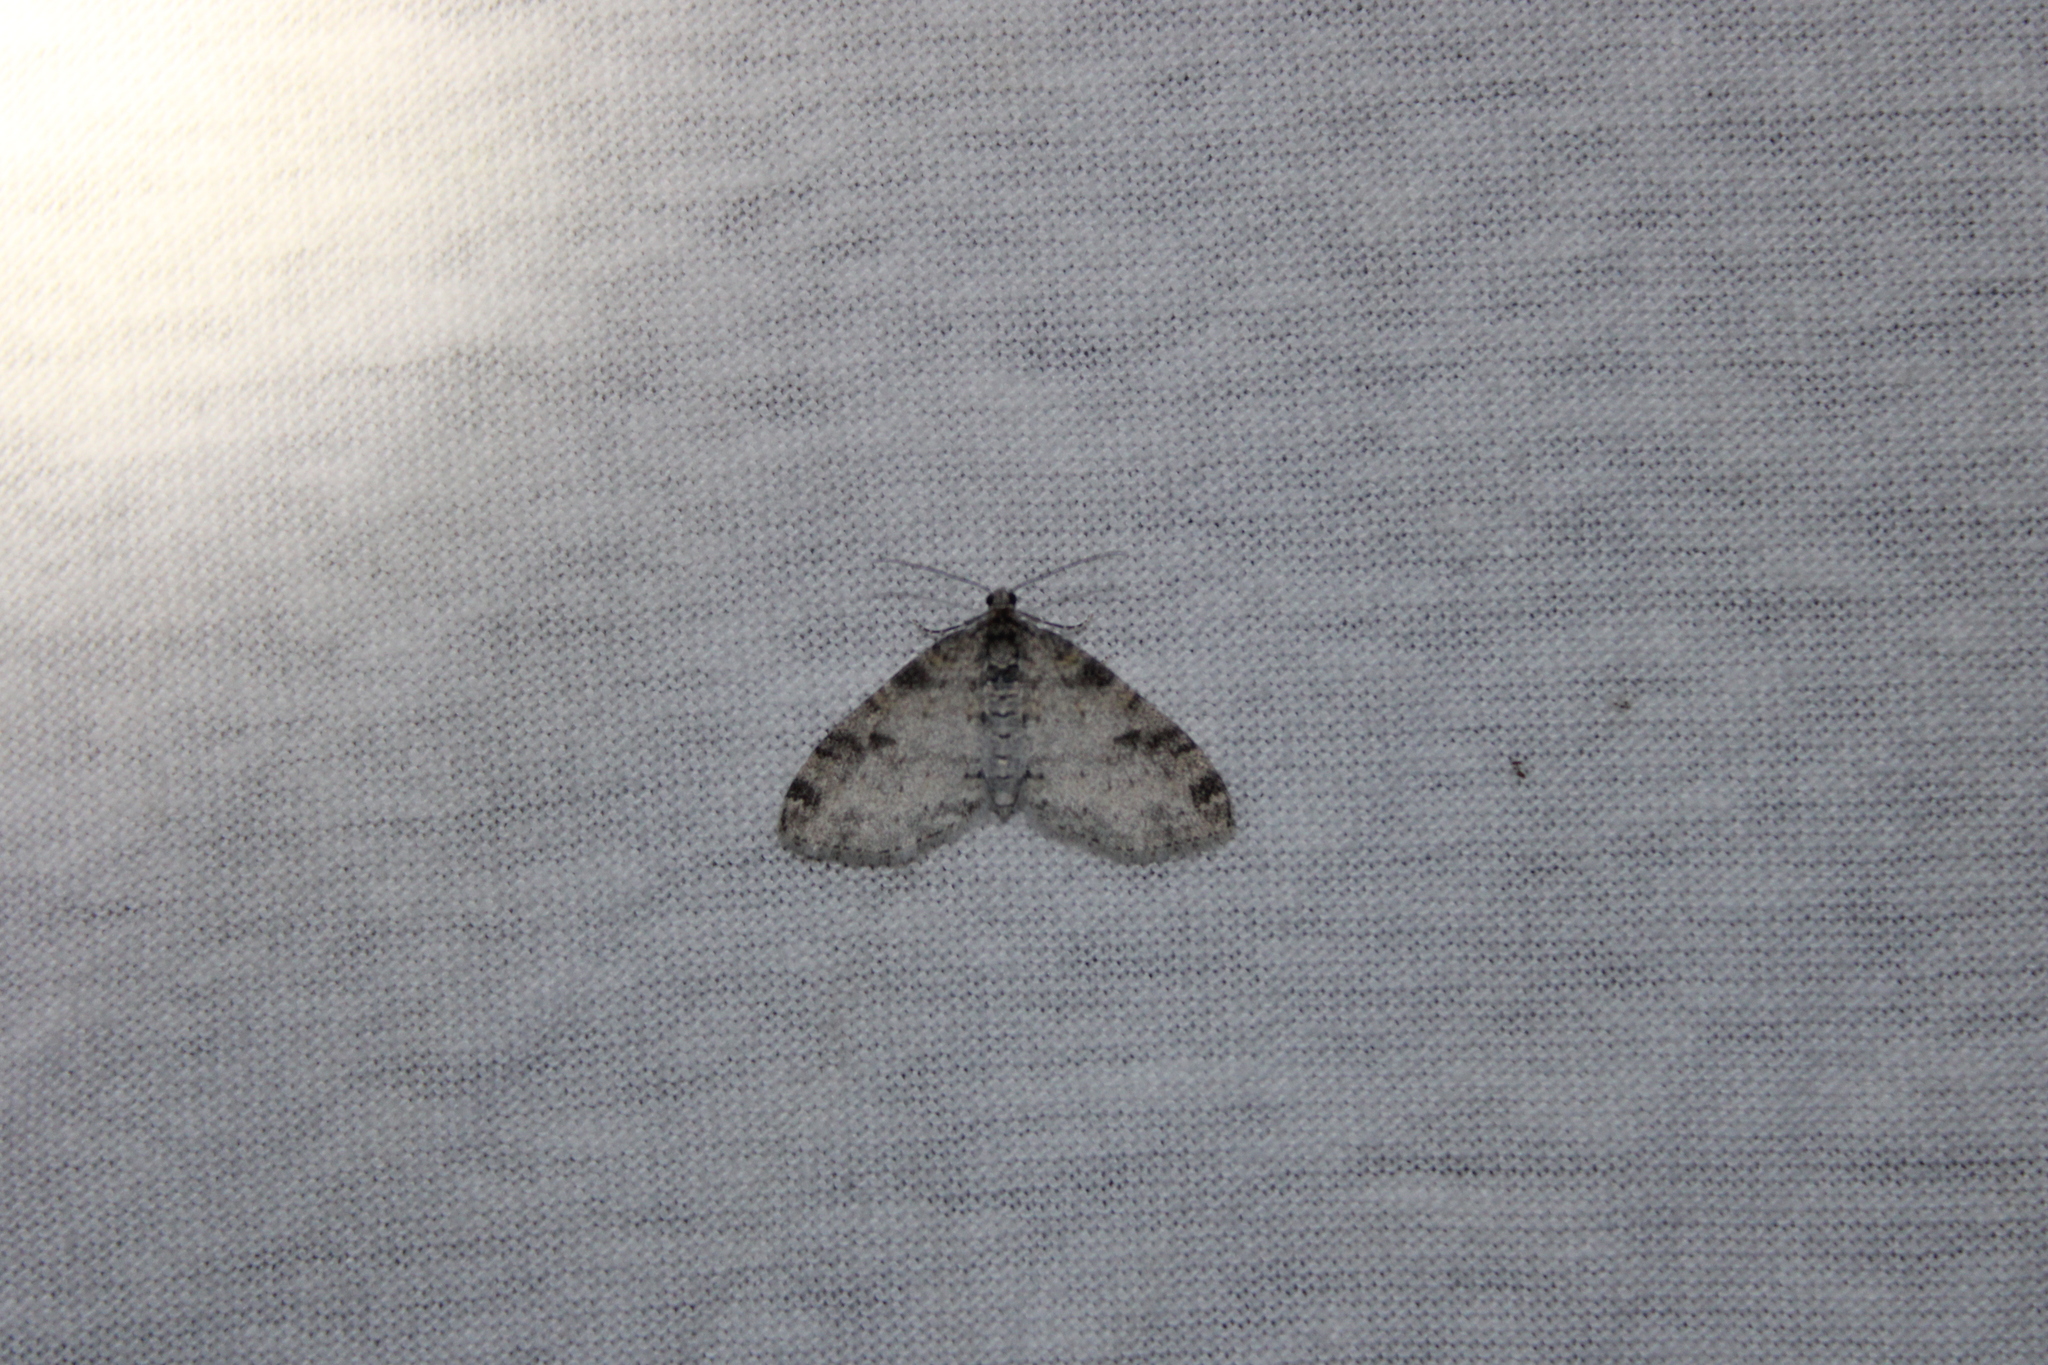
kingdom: Animalia
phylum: Arthropoda
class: Insecta
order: Lepidoptera
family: Geometridae
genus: Lobophora
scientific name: Lobophora nivigerata
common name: Powdered bigwing
